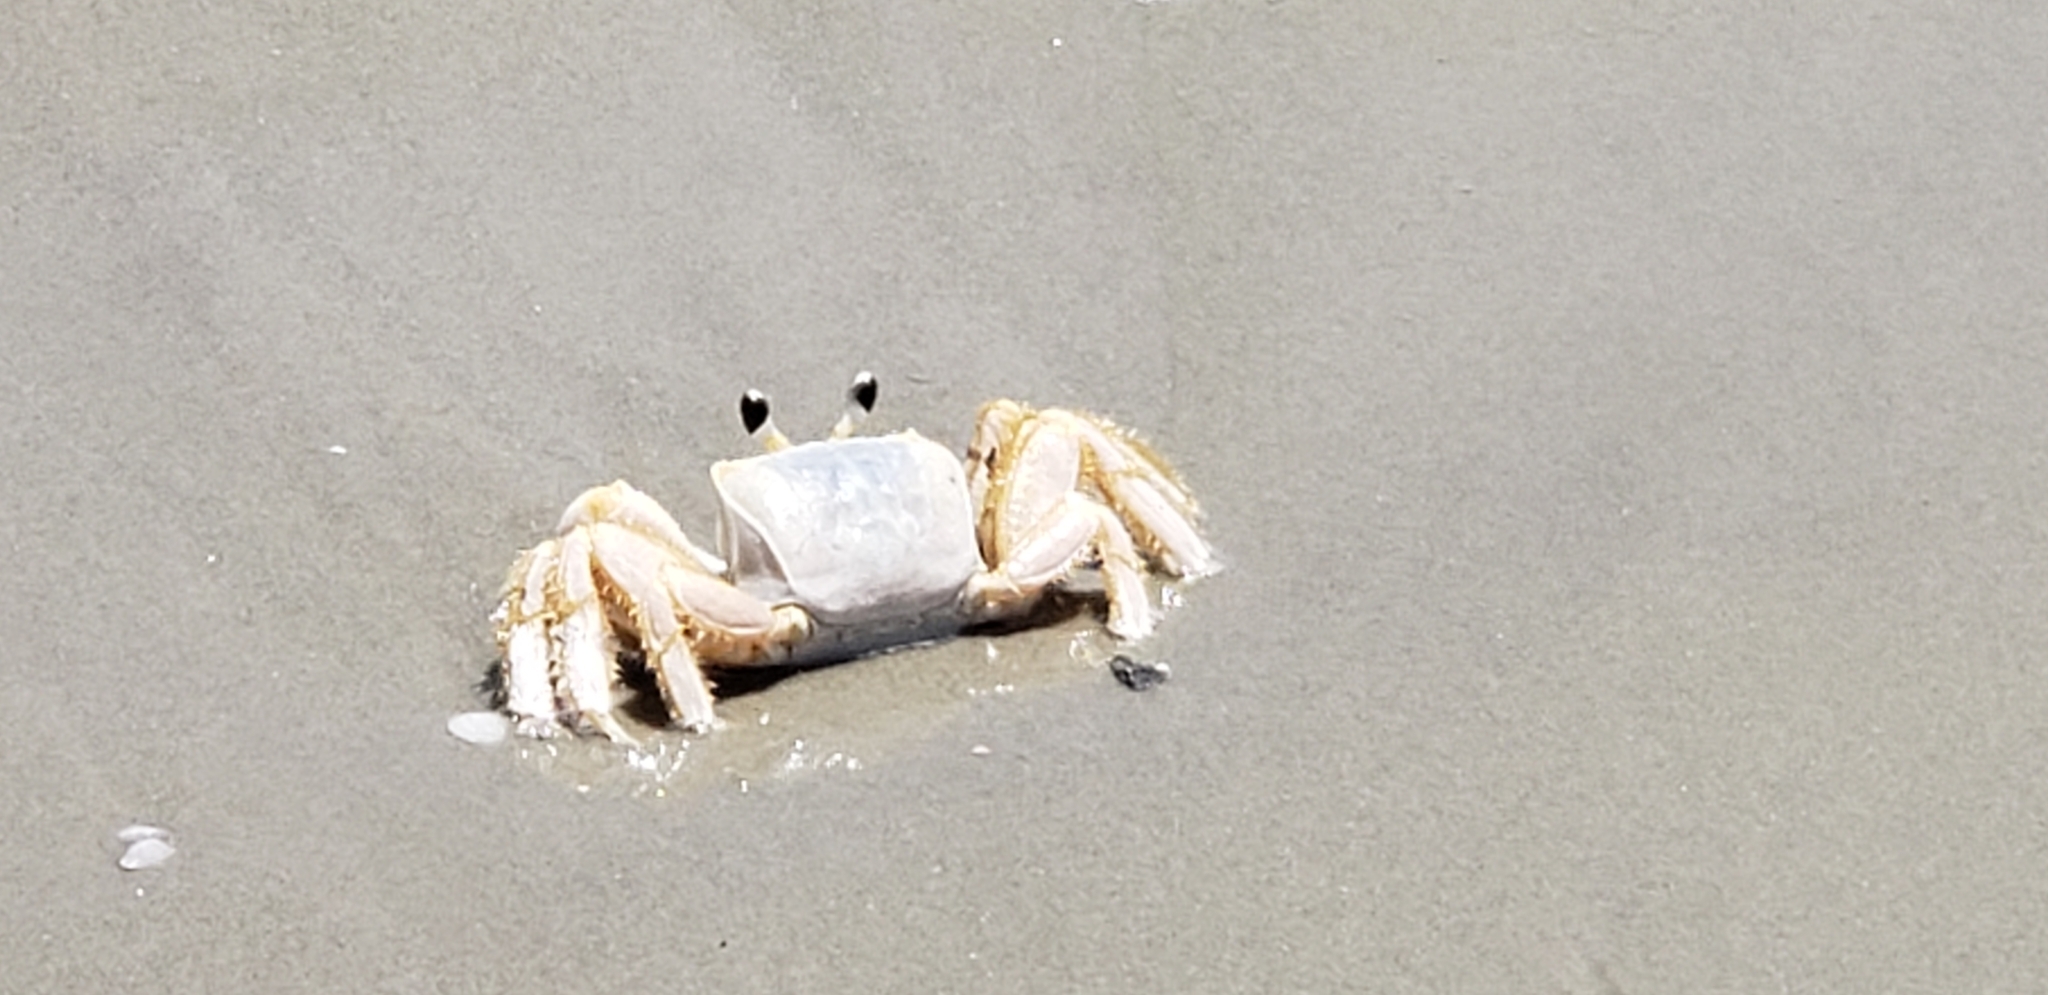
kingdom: Animalia
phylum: Arthropoda
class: Malacostraca
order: Decapoda
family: Ocypodidae
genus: Ocypode
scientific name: Ocypode quadrata
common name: Ghost crab
